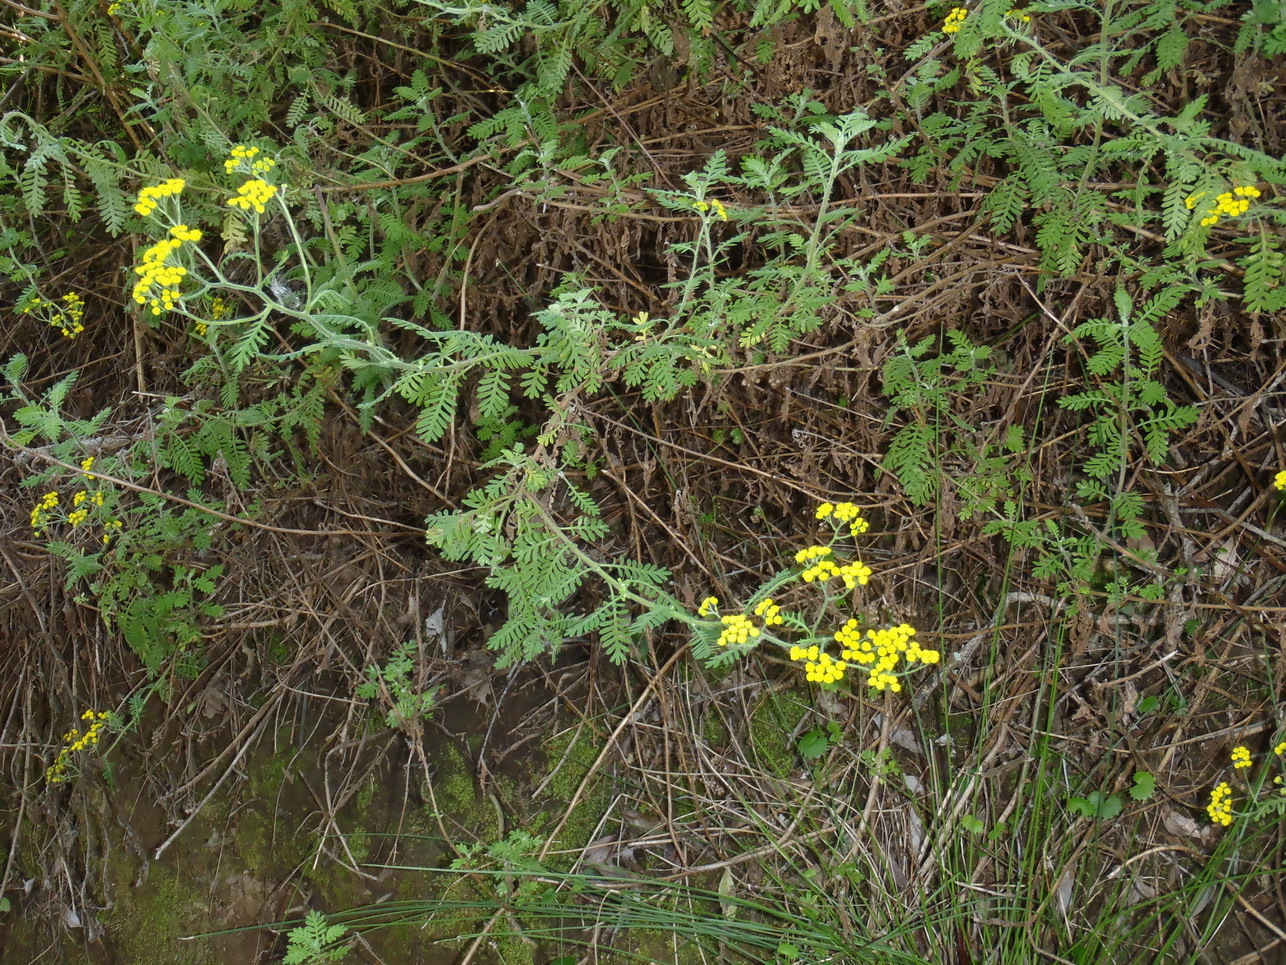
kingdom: Plantae
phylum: Tracheophyta
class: Magnoliopsida
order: Asterales
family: Asteraceae
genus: Hippia
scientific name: Hippia frutescens
